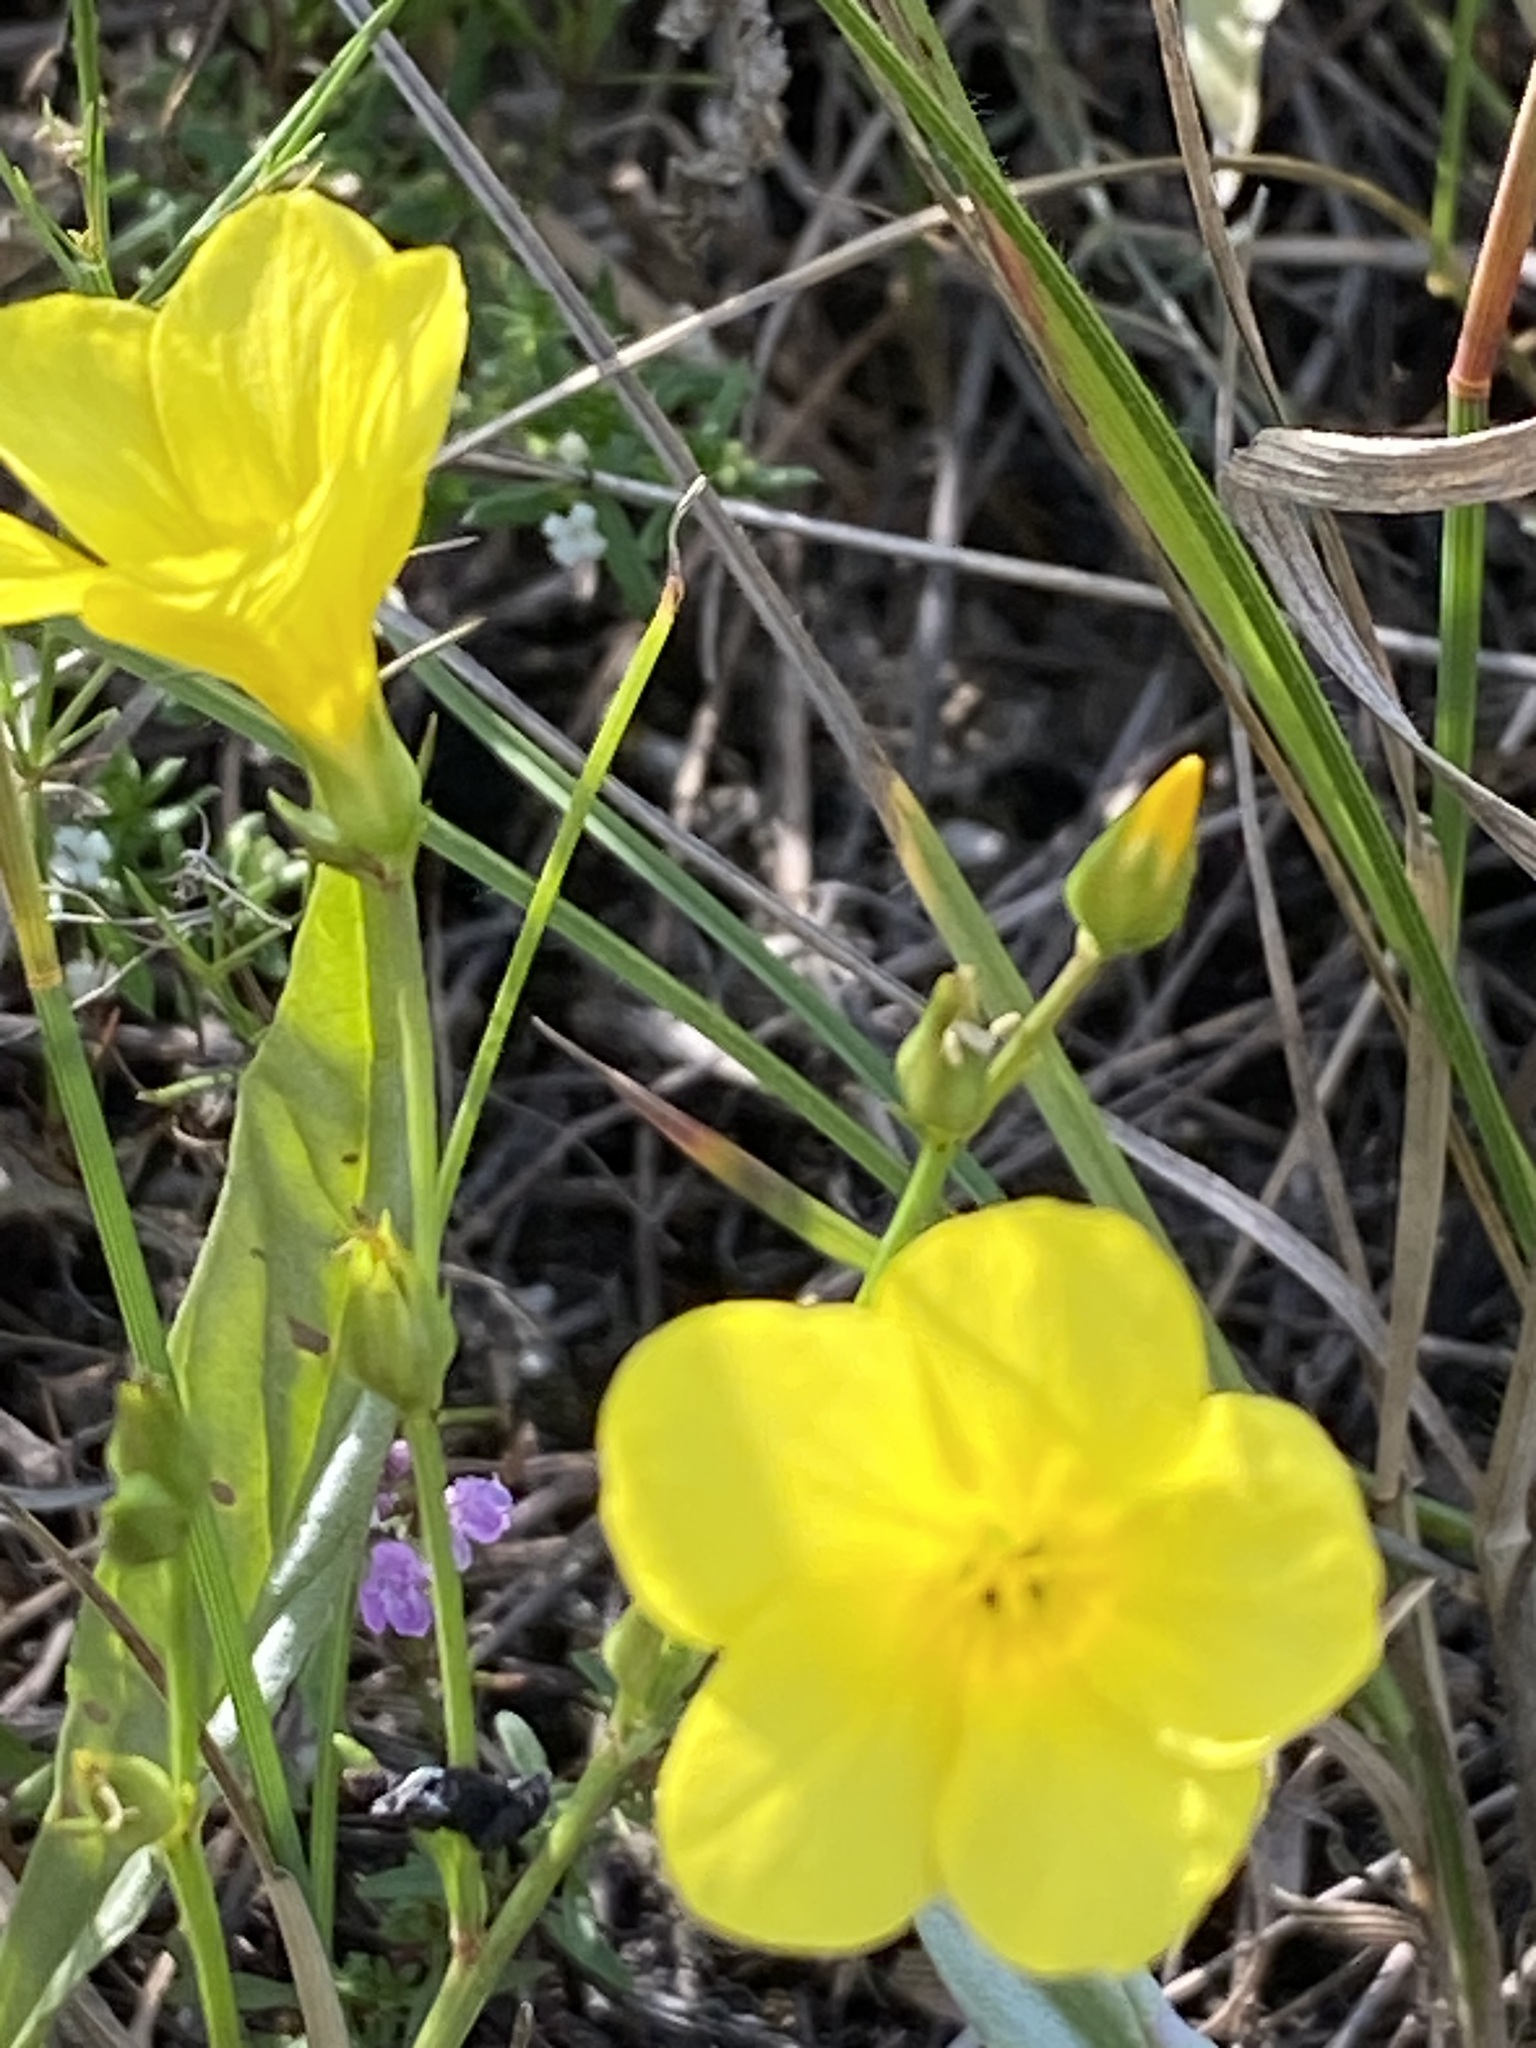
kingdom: Plantae
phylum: Tracheophyta
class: Magnoliopsida
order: Malpighiales
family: Linaceae
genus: Linum
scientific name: Linum ucranicum
